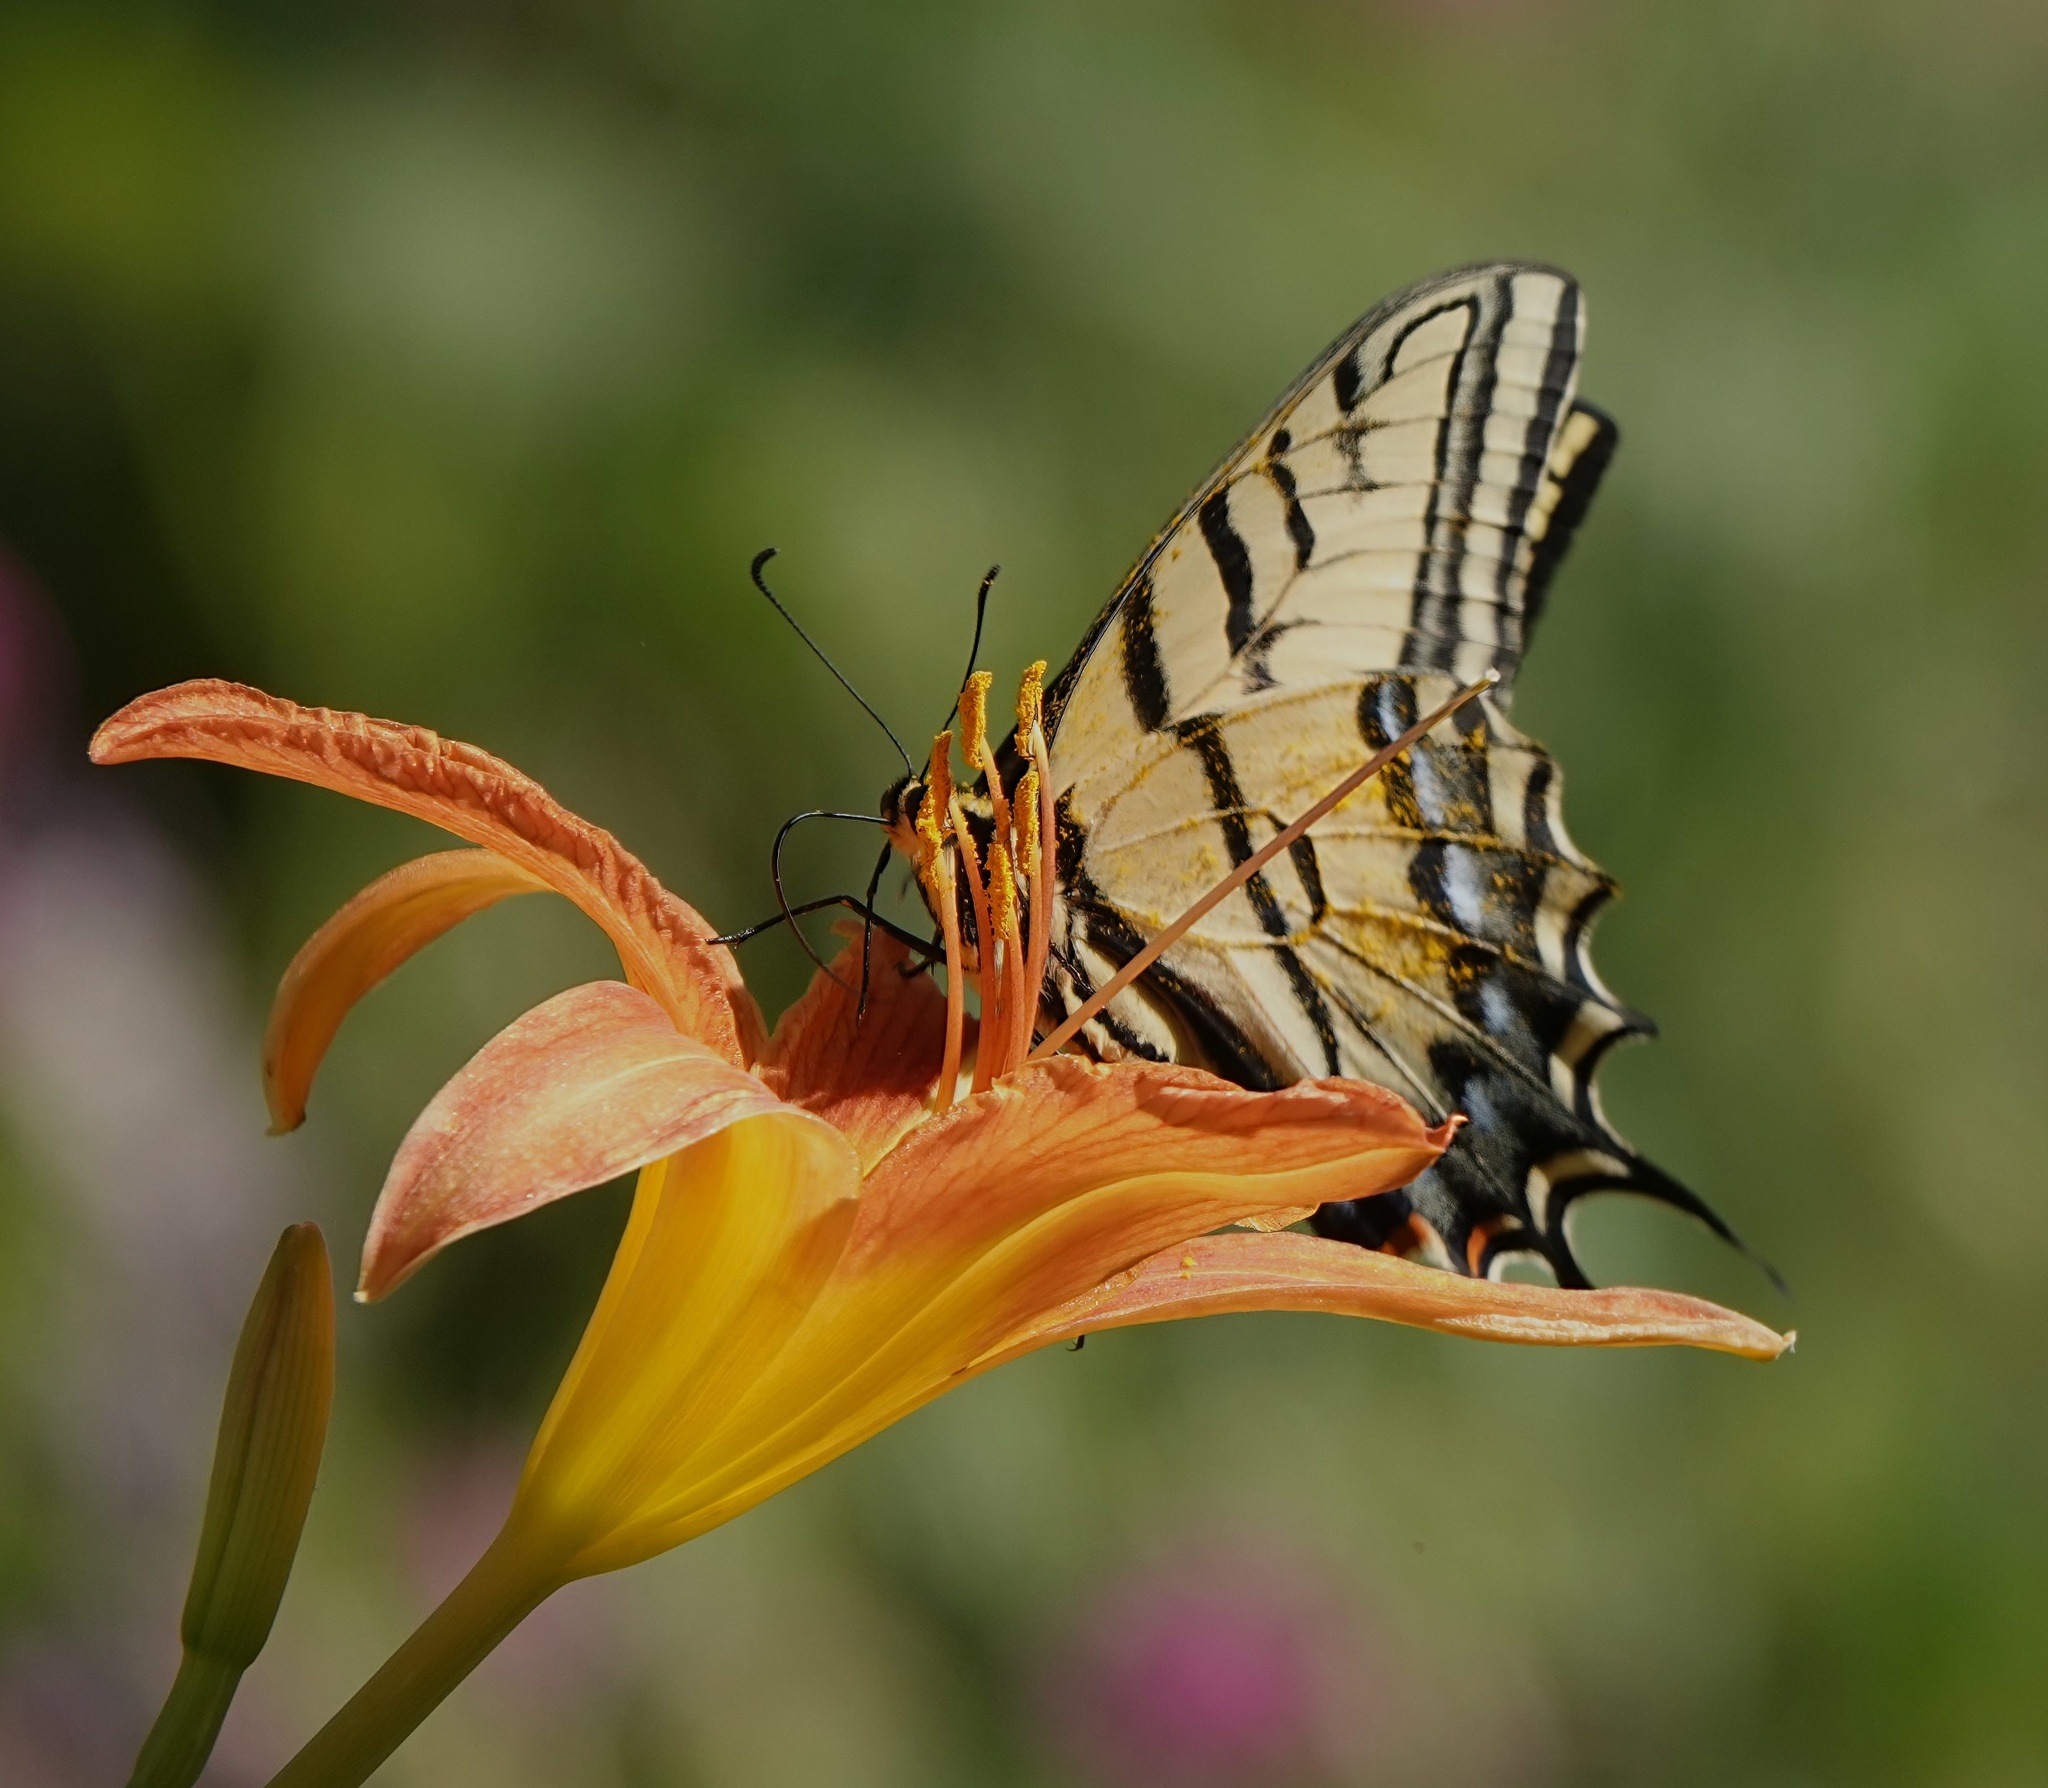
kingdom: Animalia
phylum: Arthropoda
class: Insecta
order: Lepidoptera
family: Papilionidae
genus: Papilio
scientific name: Papilio multicaudata
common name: Two-tailed tiger swallowtail
